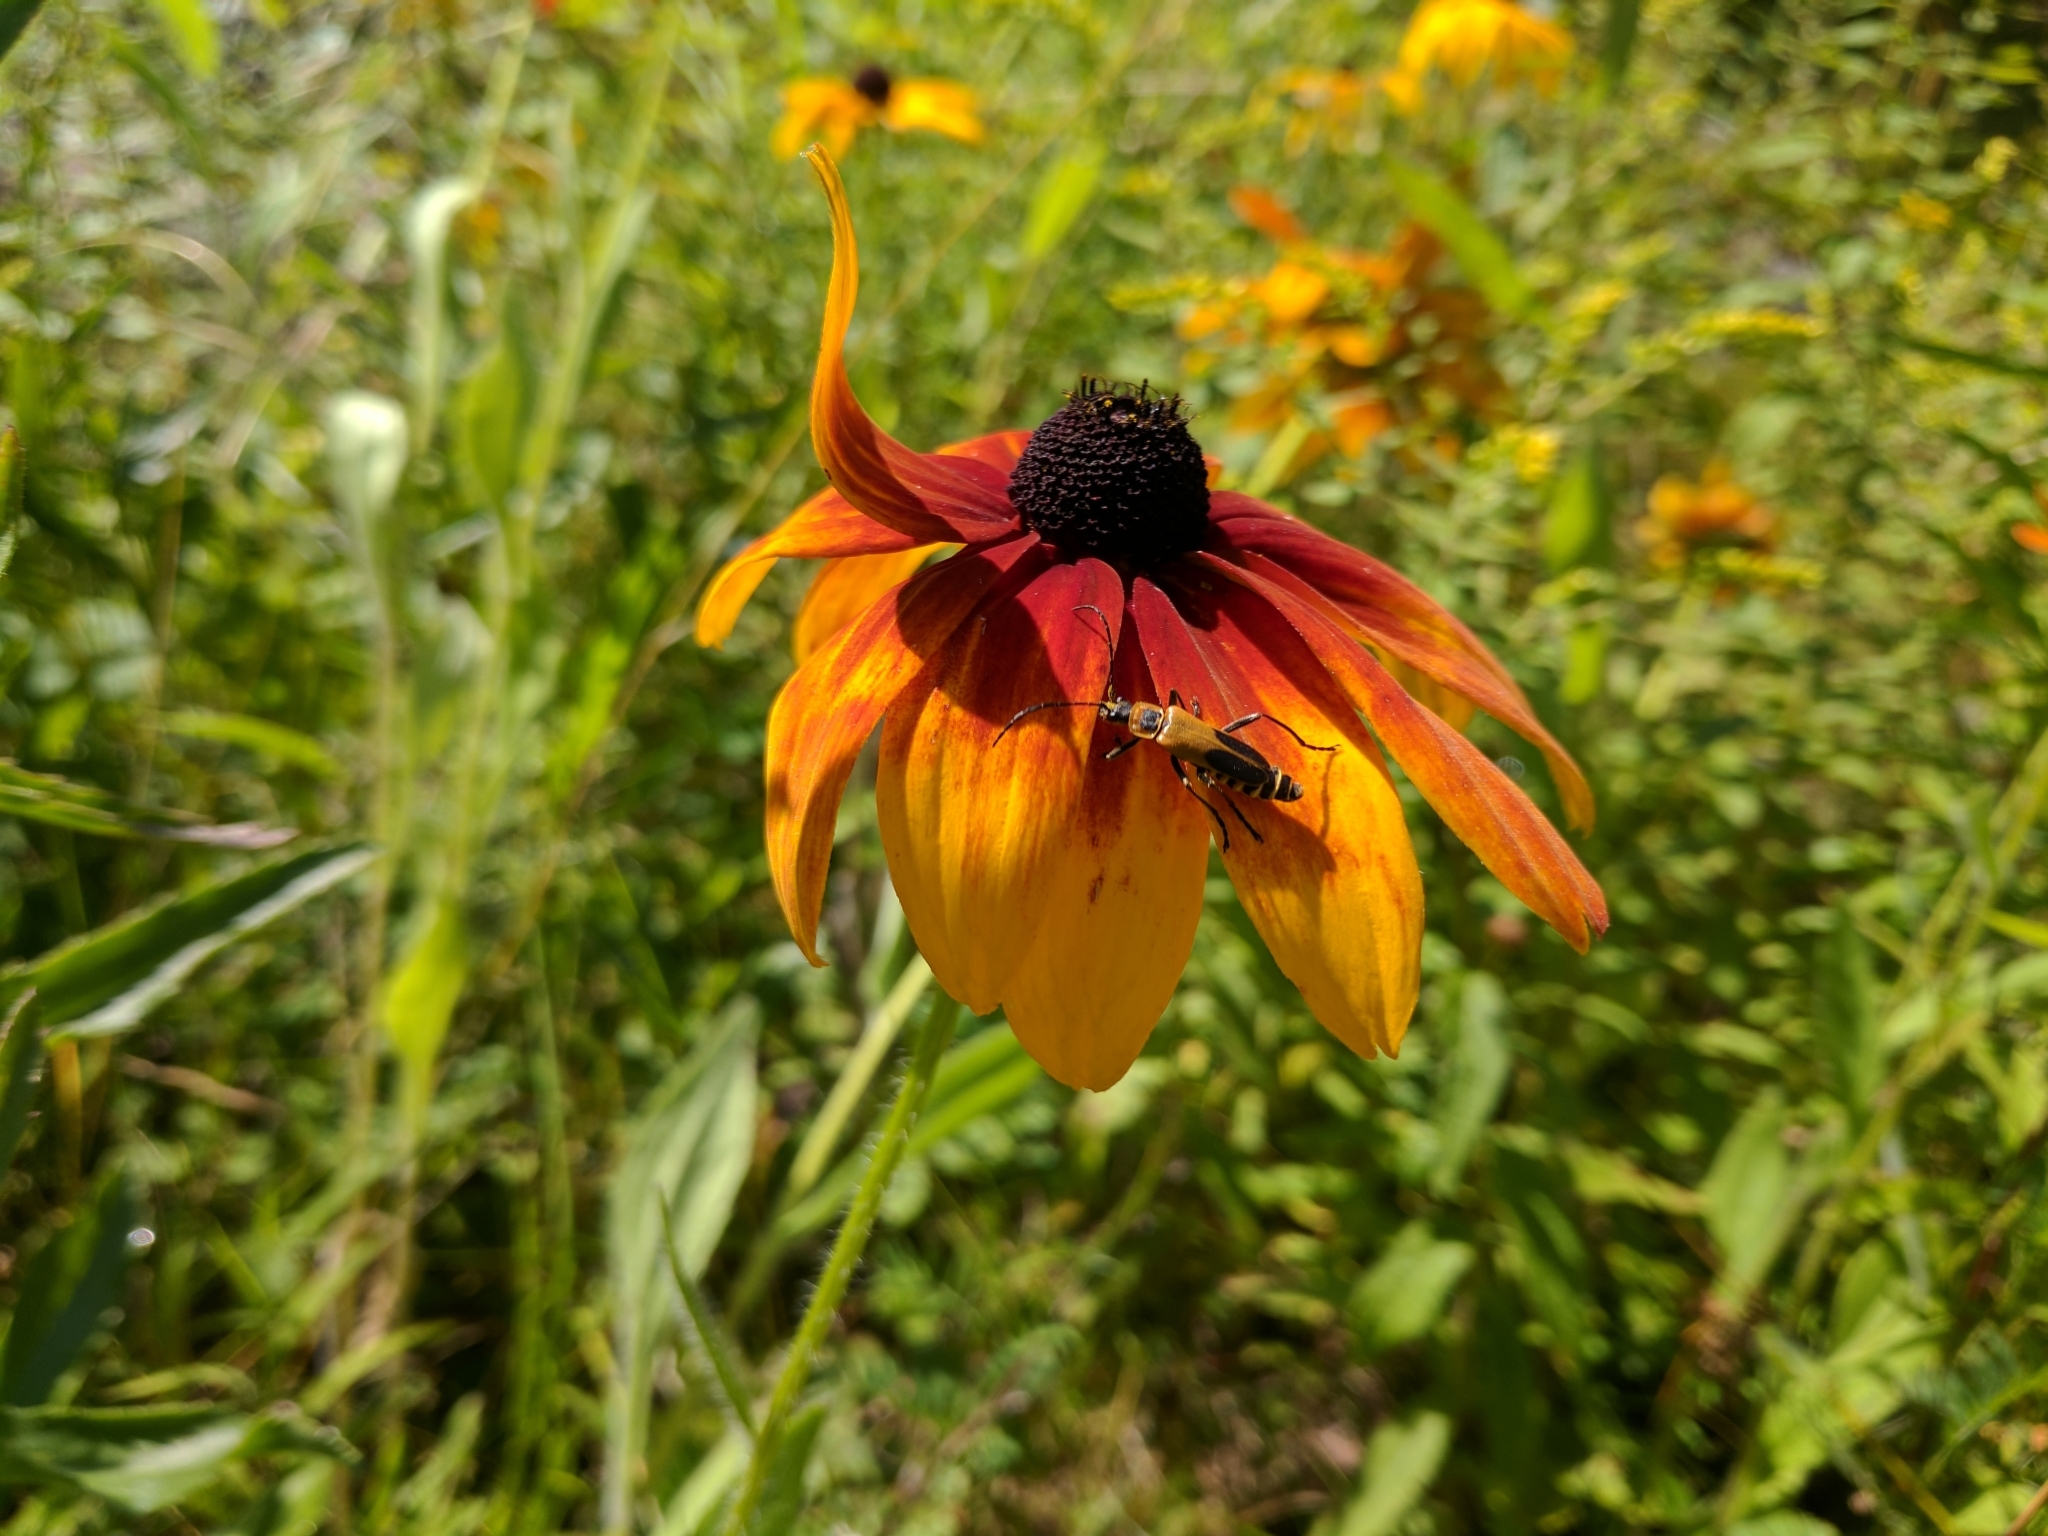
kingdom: Animalia
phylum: Arthropoda
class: Insecta
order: Coleoptera
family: Cantharidae
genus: Chauliognathus
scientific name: Chauliognathus pensylvanicus
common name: Goldenrod soldier beetle
